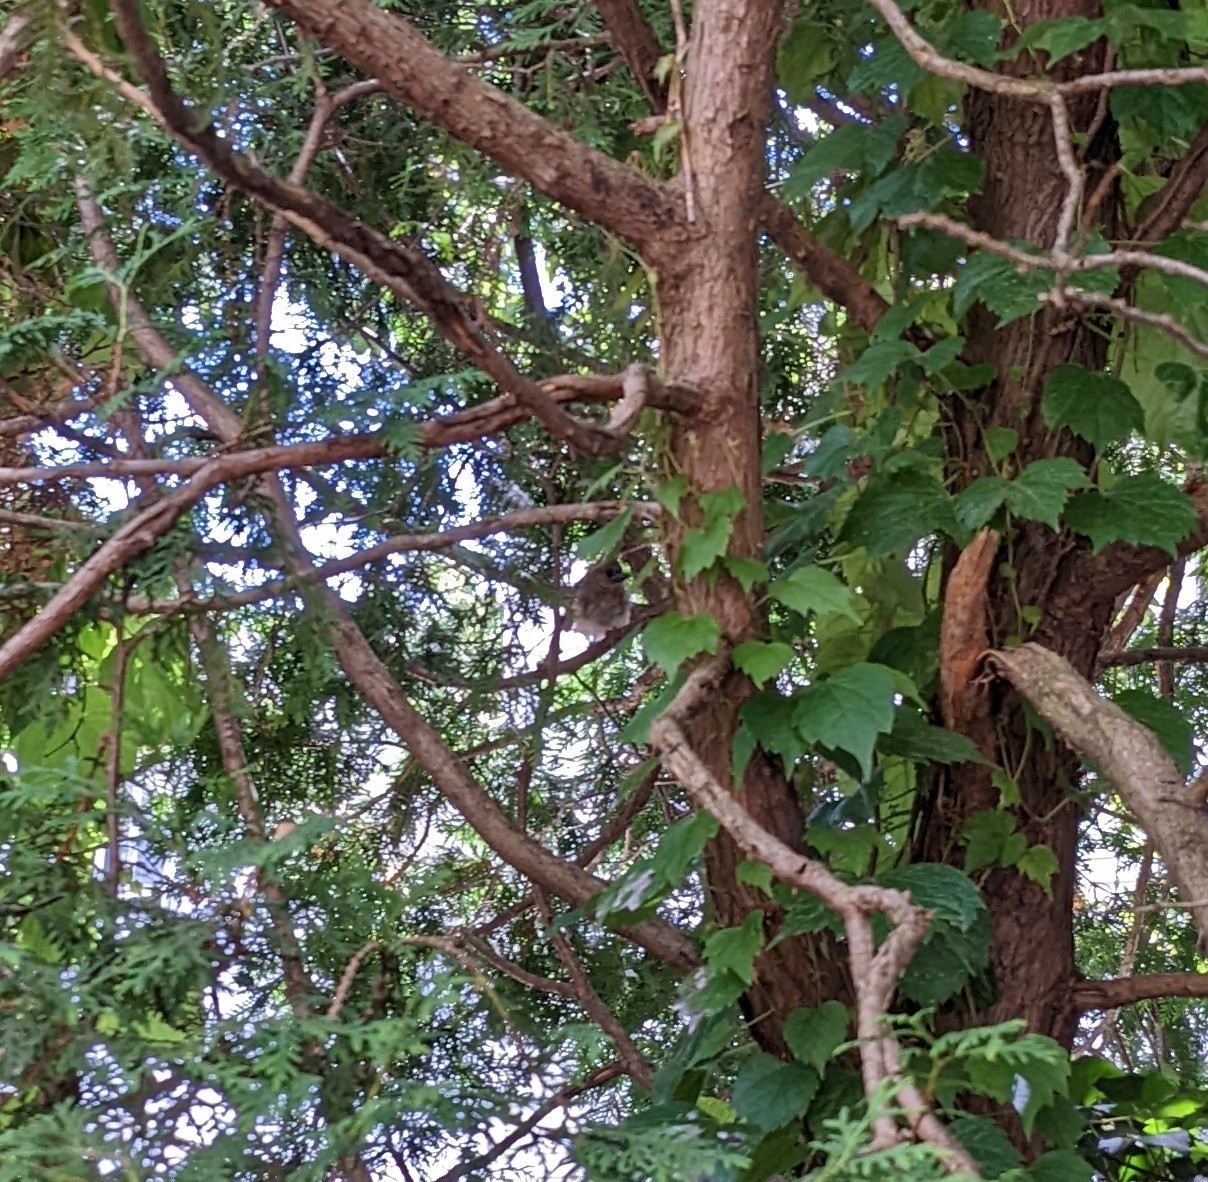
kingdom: Animalia
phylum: Chordata
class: Aves
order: Passeriformes
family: Cardinalidae
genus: Cardinalis
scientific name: Cardinalis cardinalis
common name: Northern cardinal
